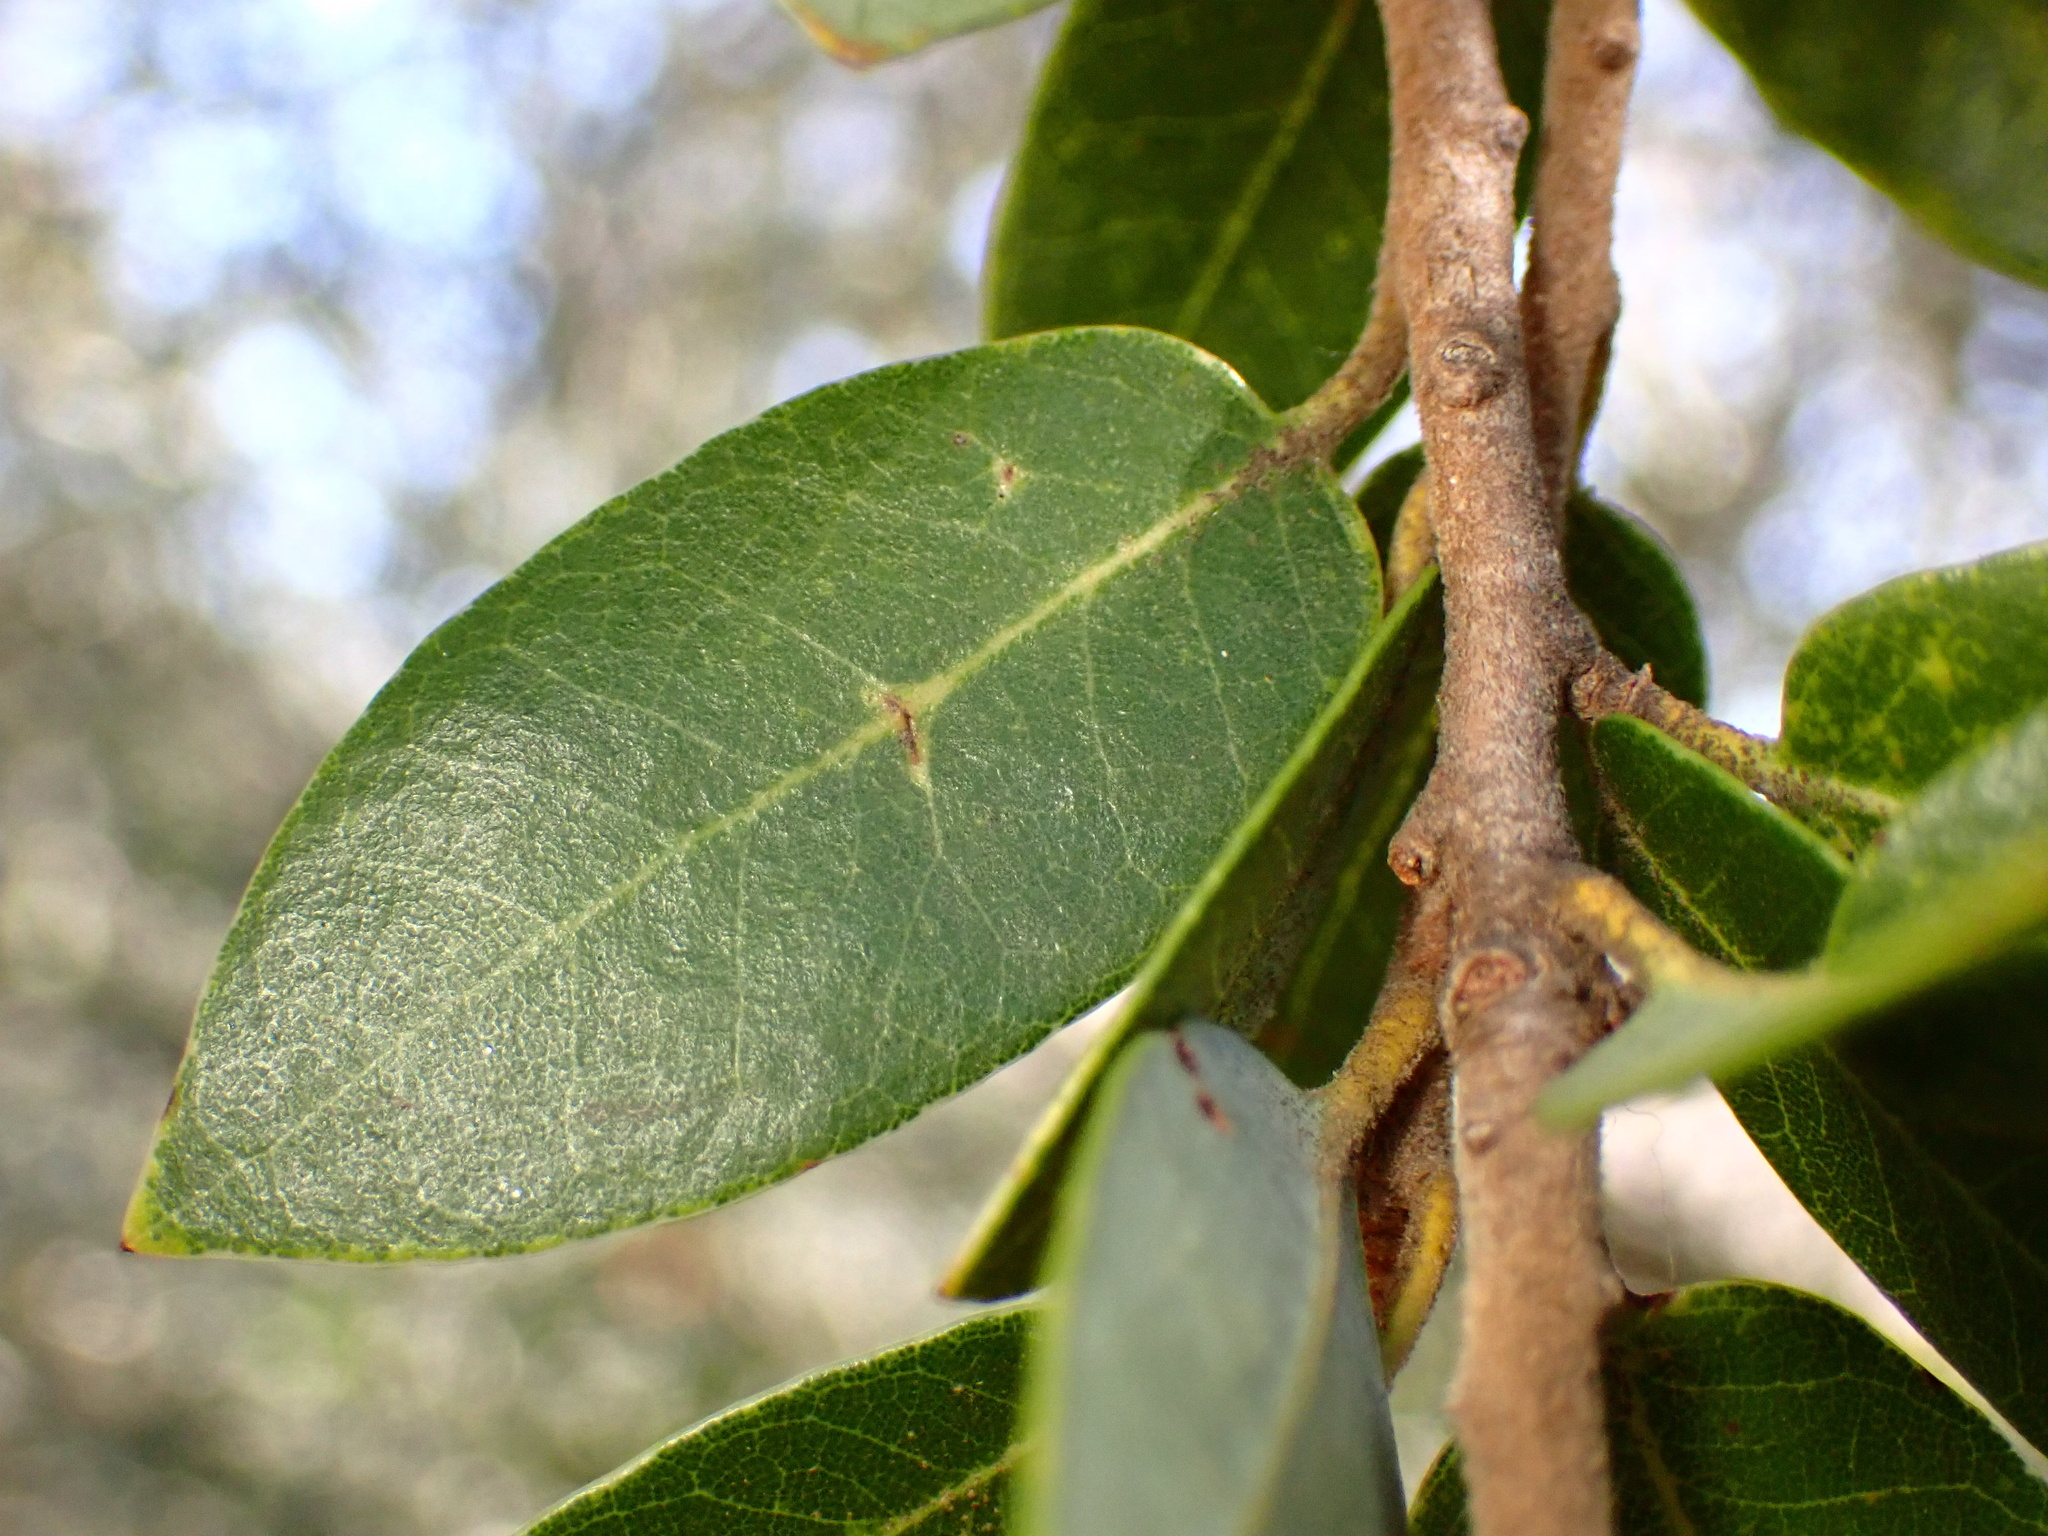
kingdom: Plantae
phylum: Tracheophyta
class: Magnoliopsida
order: Fagales
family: Fagaceae
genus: Quercus
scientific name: Quercus chrysolepis
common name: Canyon live oak
